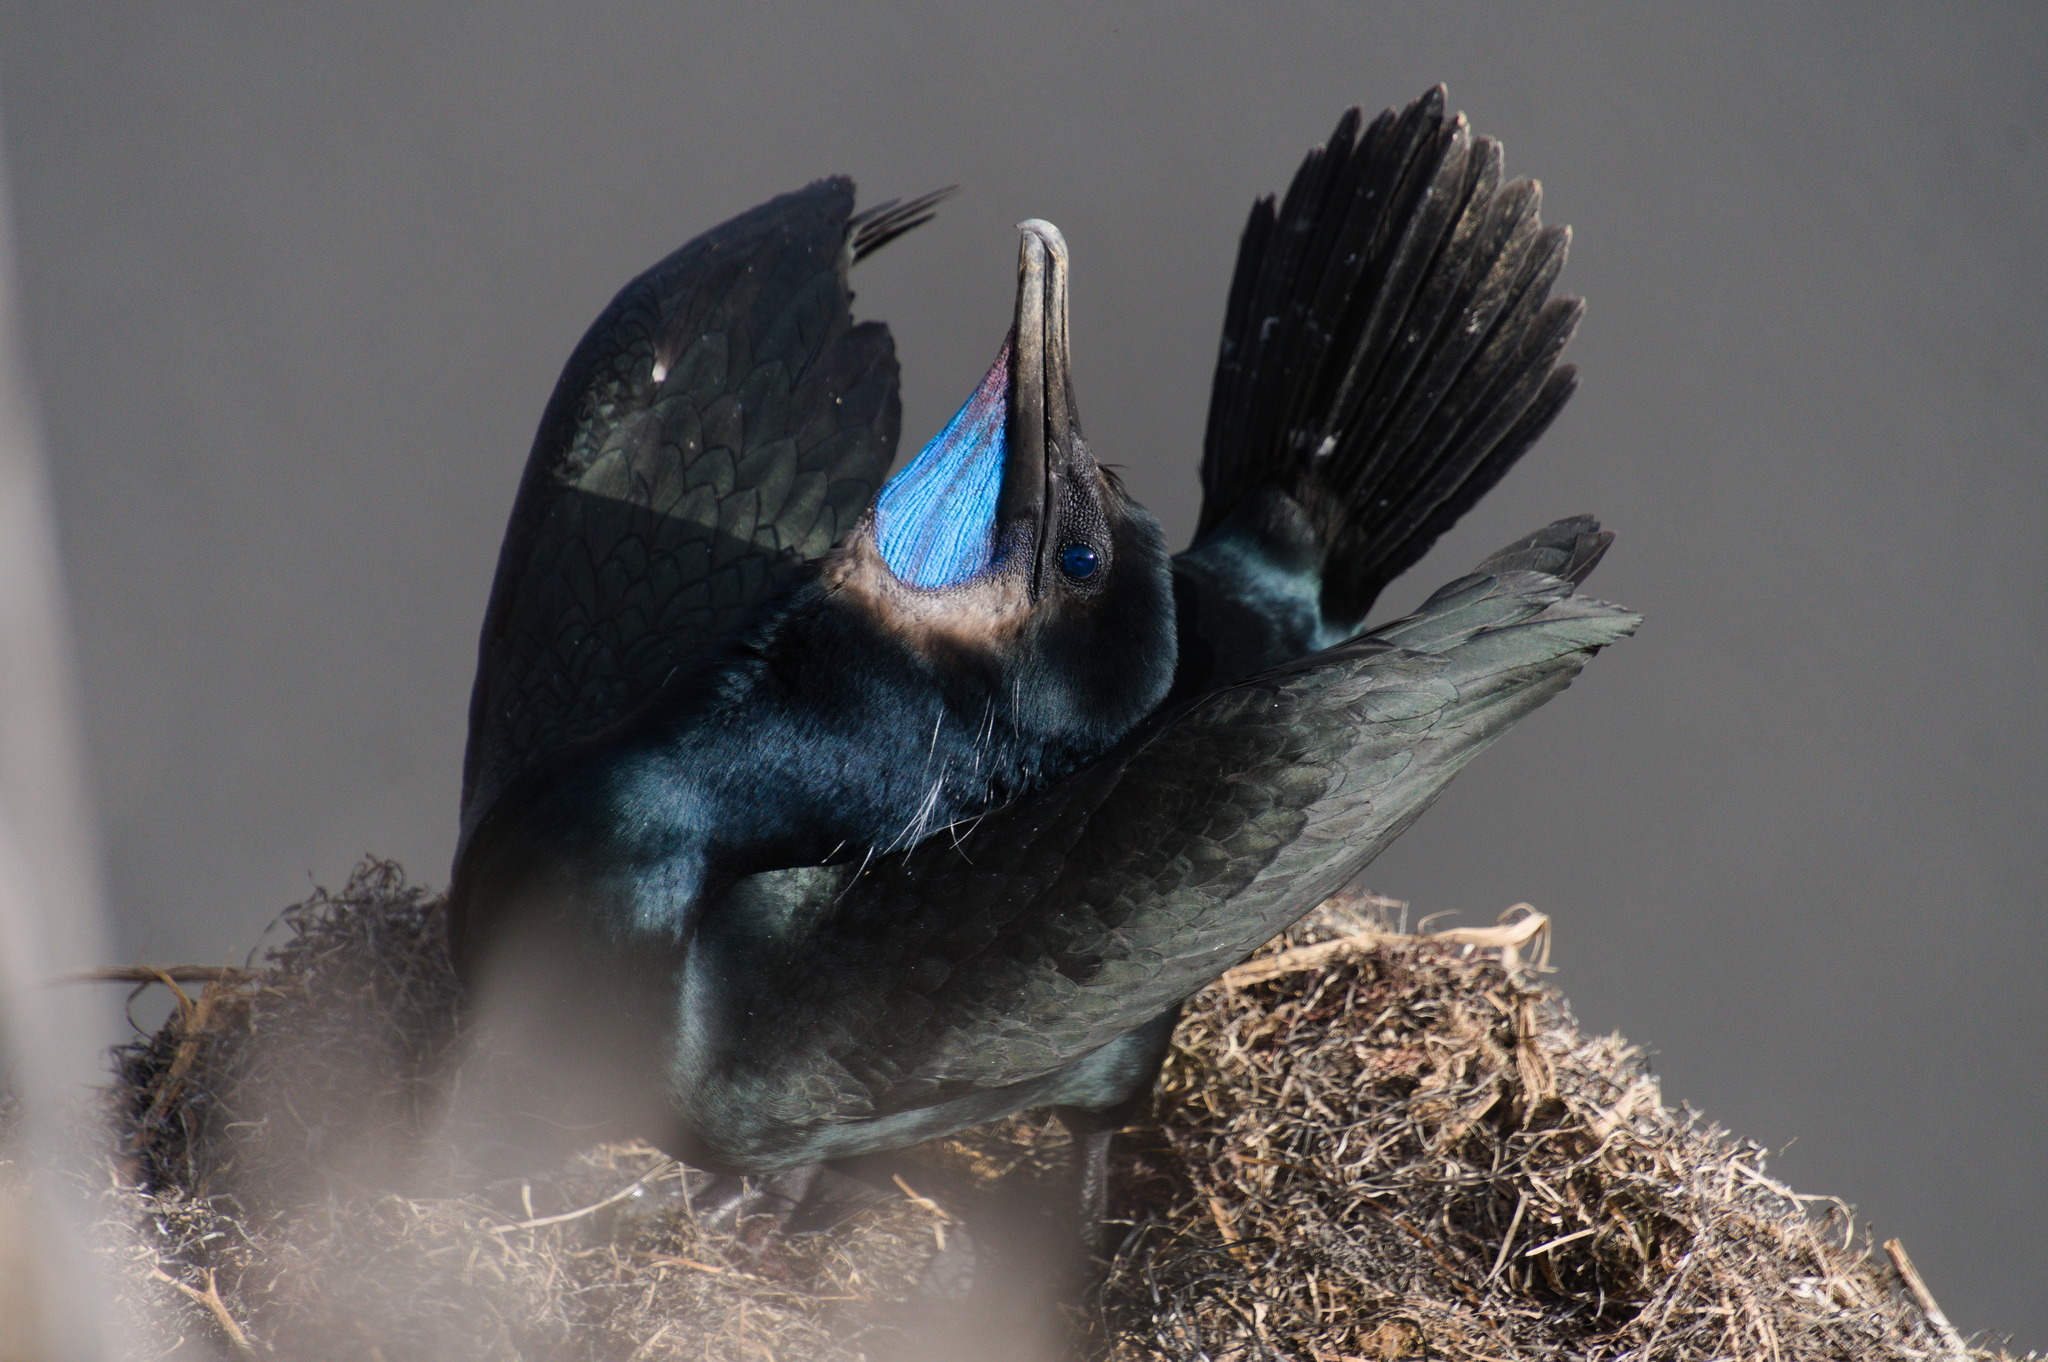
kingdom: Animalia
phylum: Chordata
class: Aves
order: Suliformes
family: Phalacrocoracidae
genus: Urile
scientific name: Urile penicillatus
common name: Brandt's cormorant
